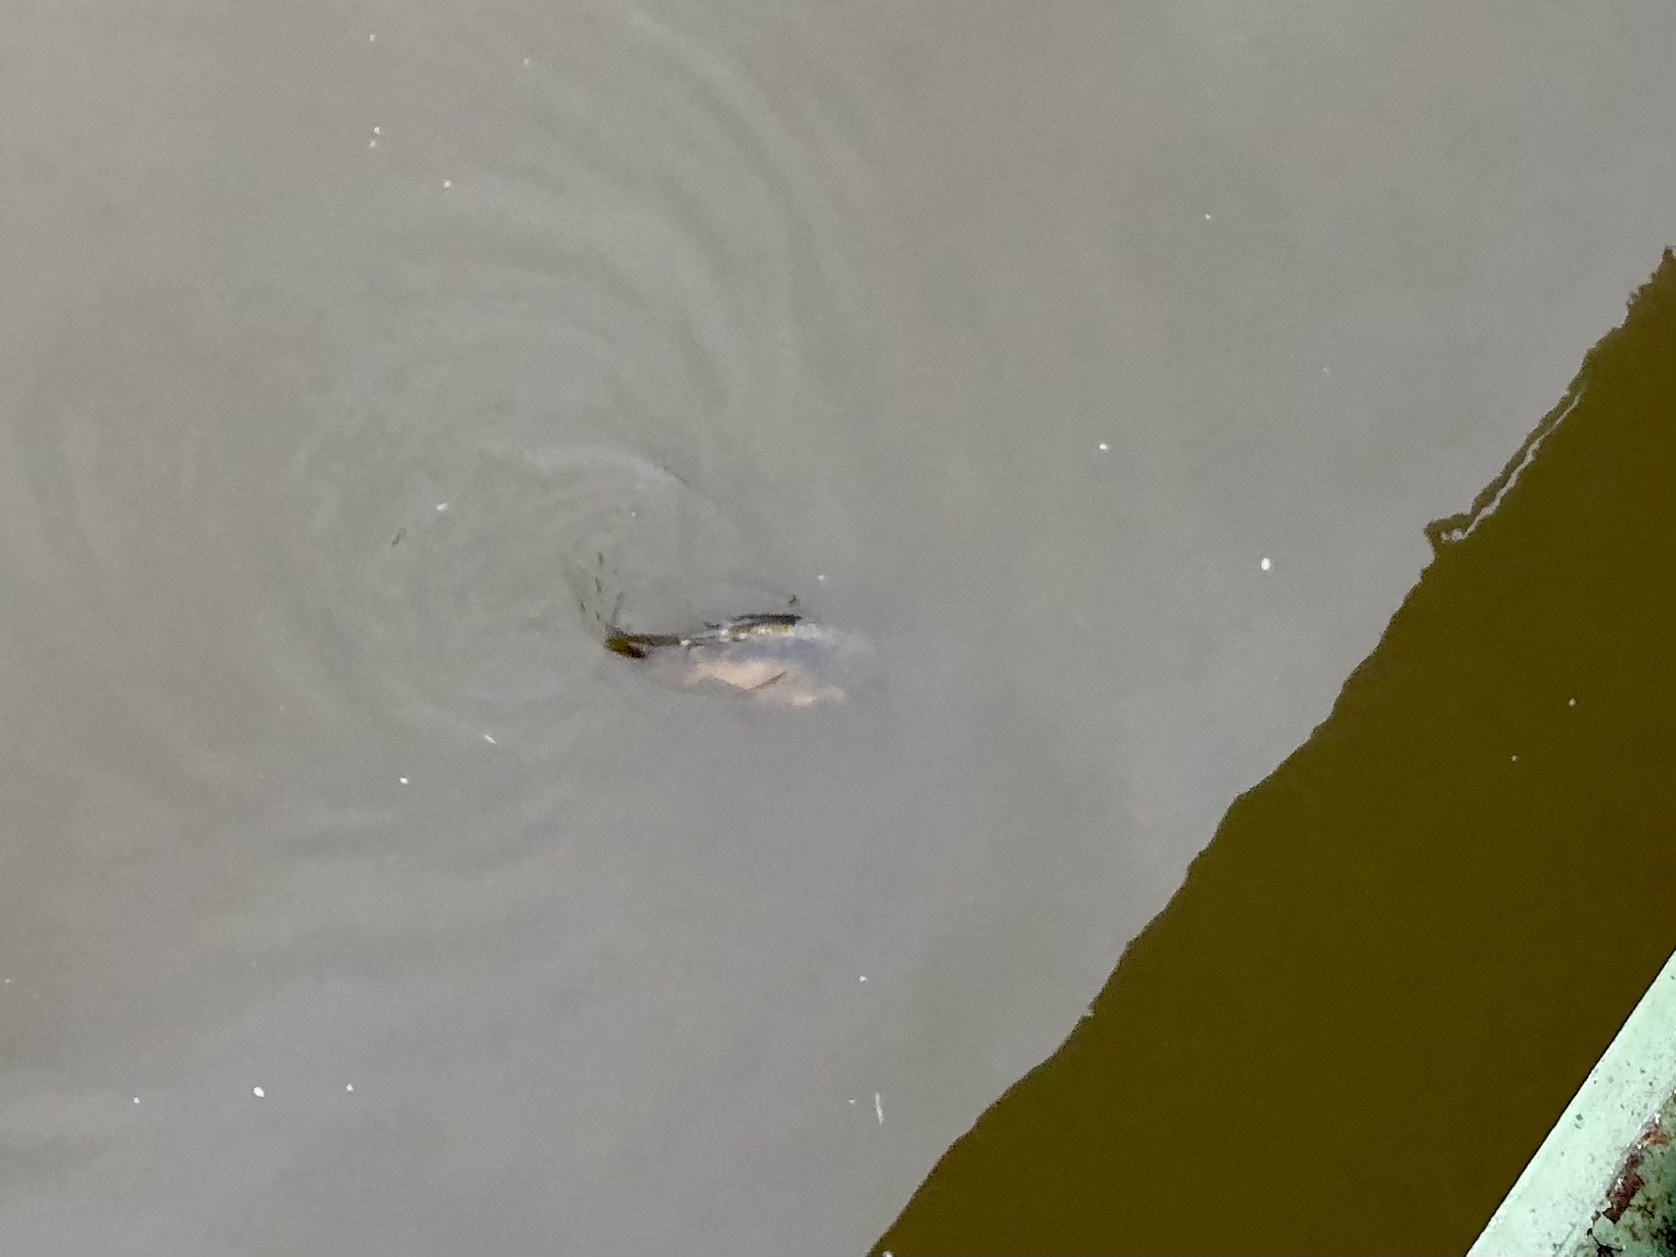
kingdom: Animalia
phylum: Chordata
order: Cypriniformes
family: Cyprinidae
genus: Cyprinus
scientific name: Cyprinus carpio
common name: Common carp
